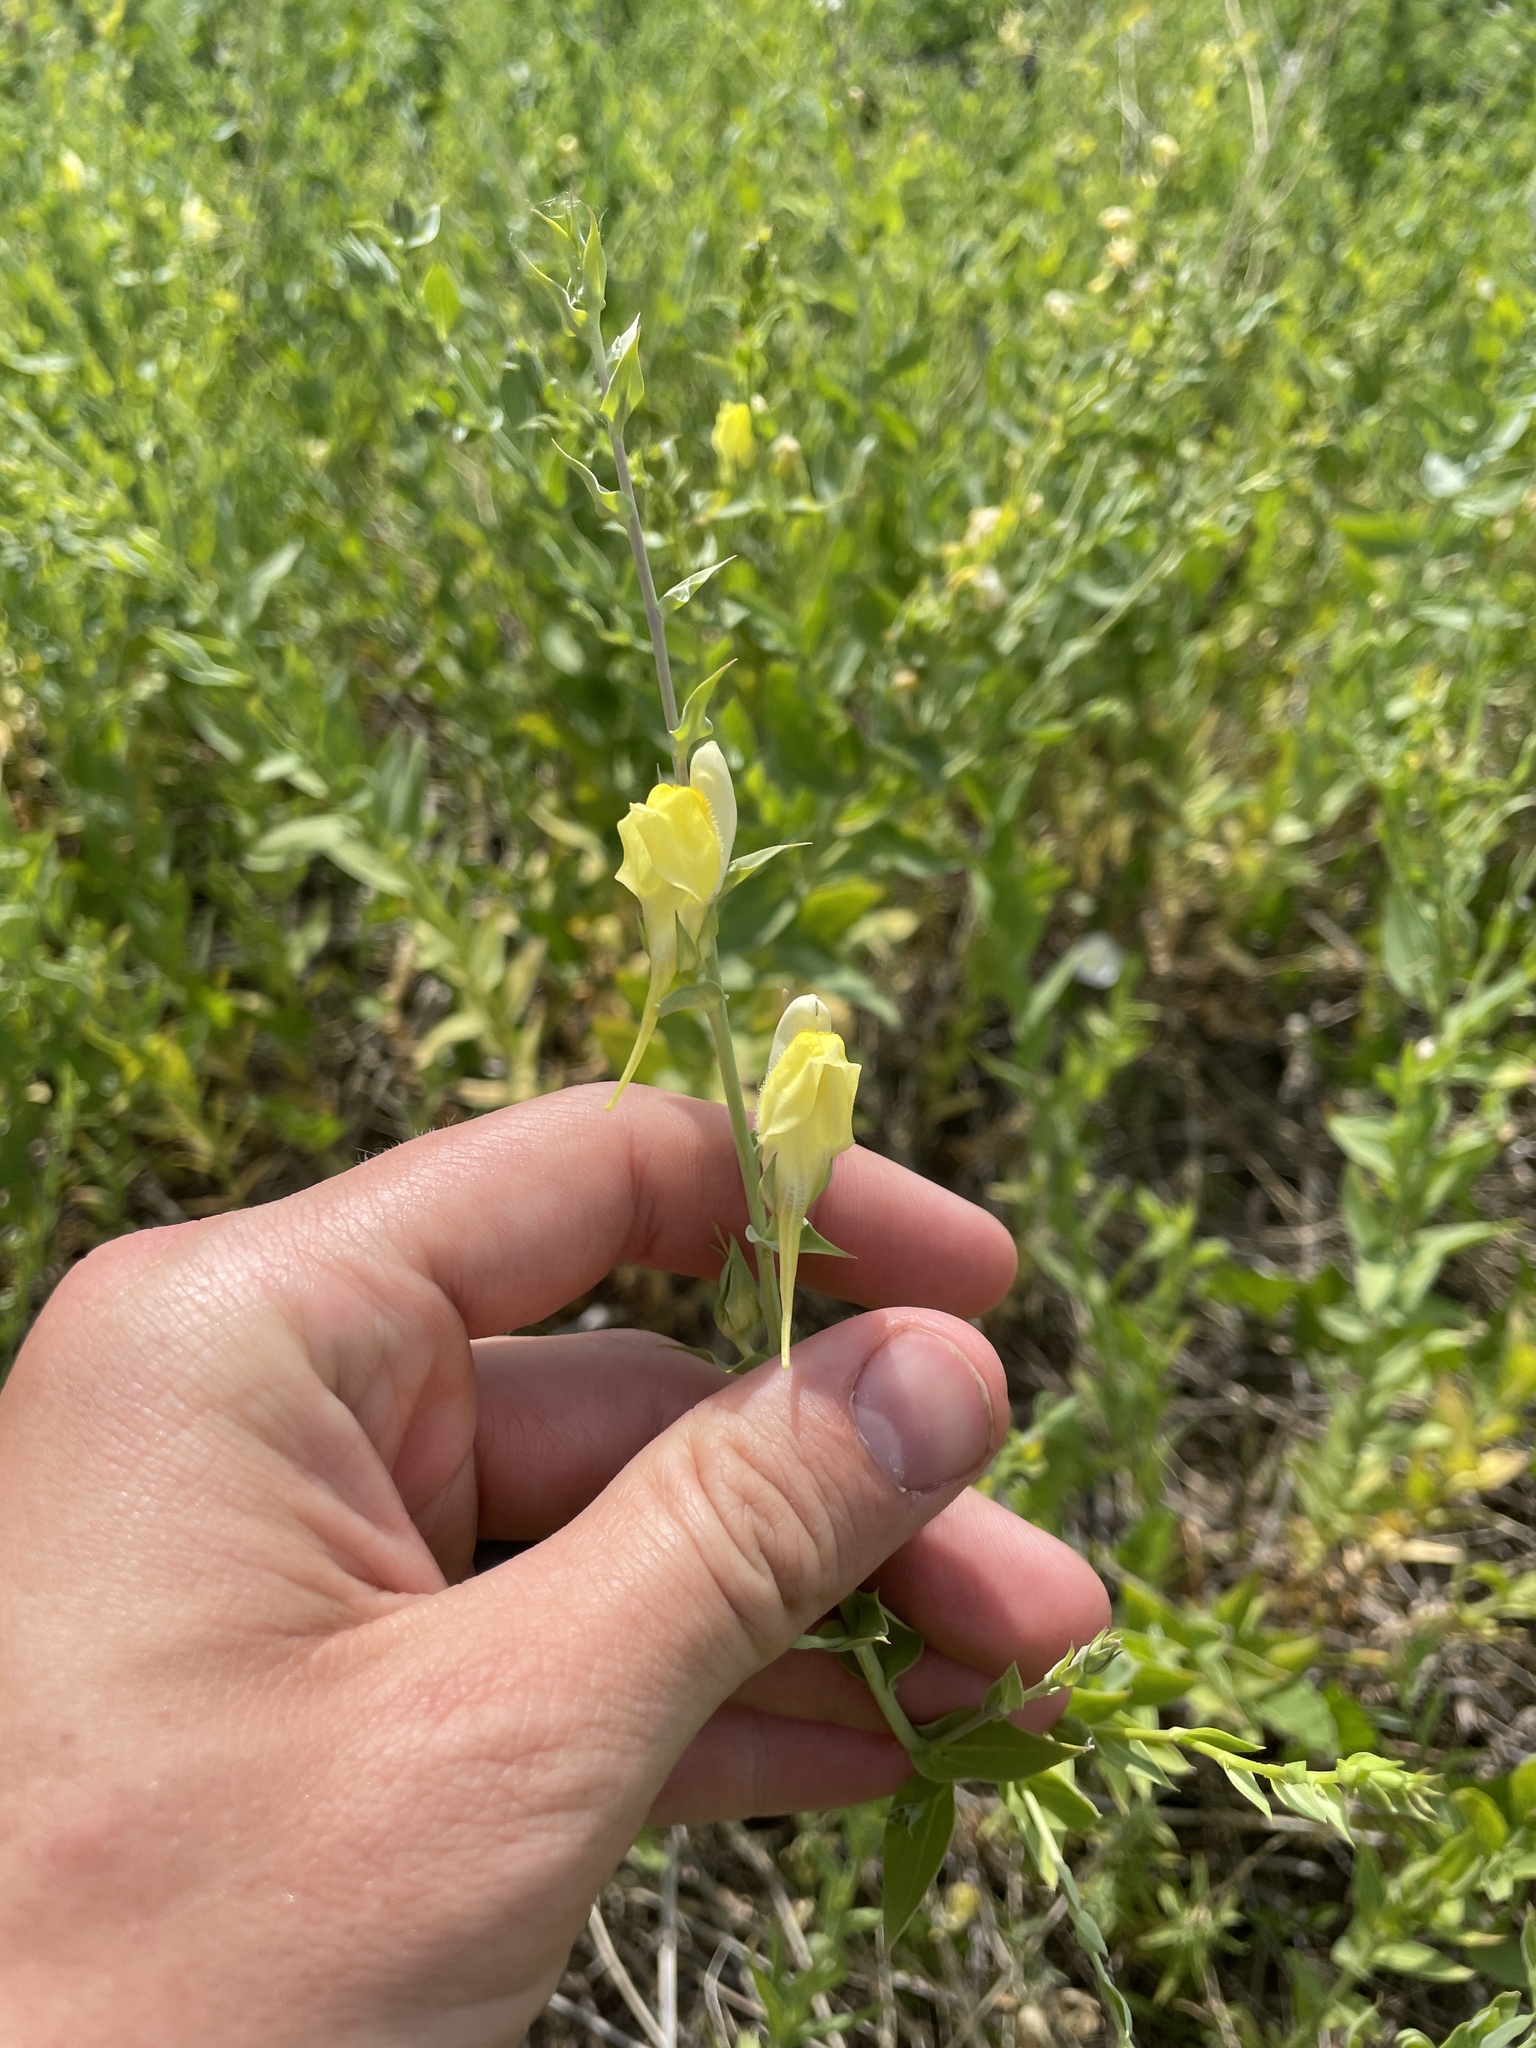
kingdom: Plantae
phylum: Tracheophyta
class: Magnoliopsida
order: Lamiales
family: Plantaginaceae
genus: Linaria
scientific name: Linaria dalmatica
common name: Dalmatian toadflax
